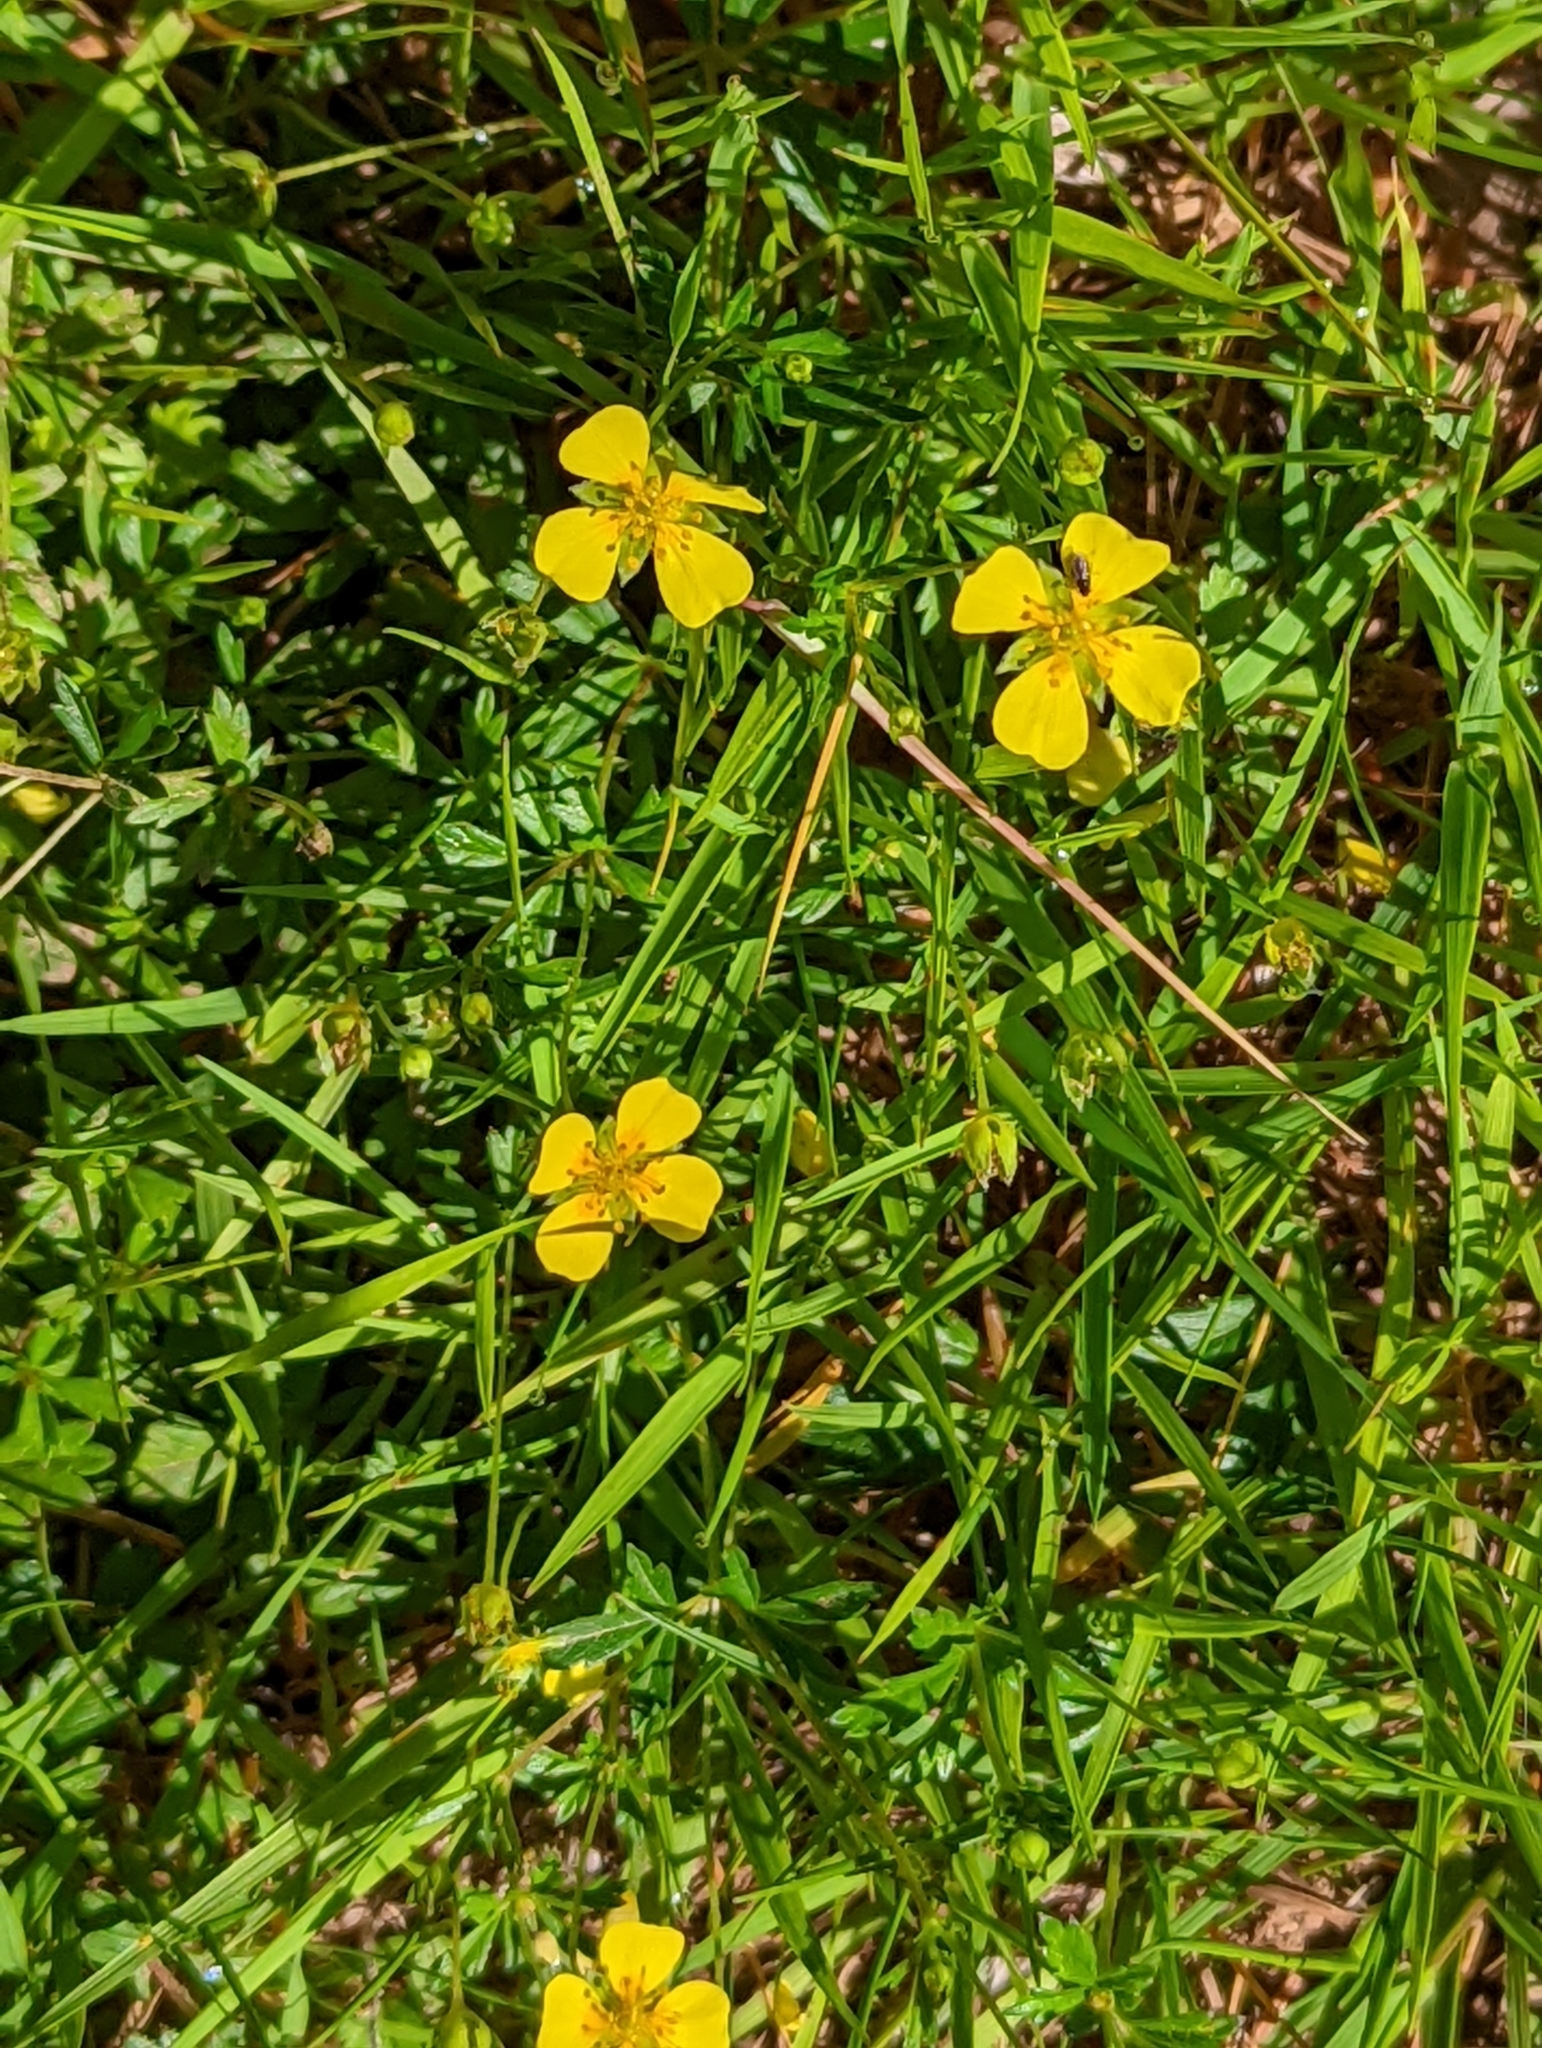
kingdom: Plantae
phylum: Tracheophyta
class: Magnoliopsida
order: Rosales
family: Rosaceae
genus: Potentilla
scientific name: Potentilla erecta
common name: Tormentil
